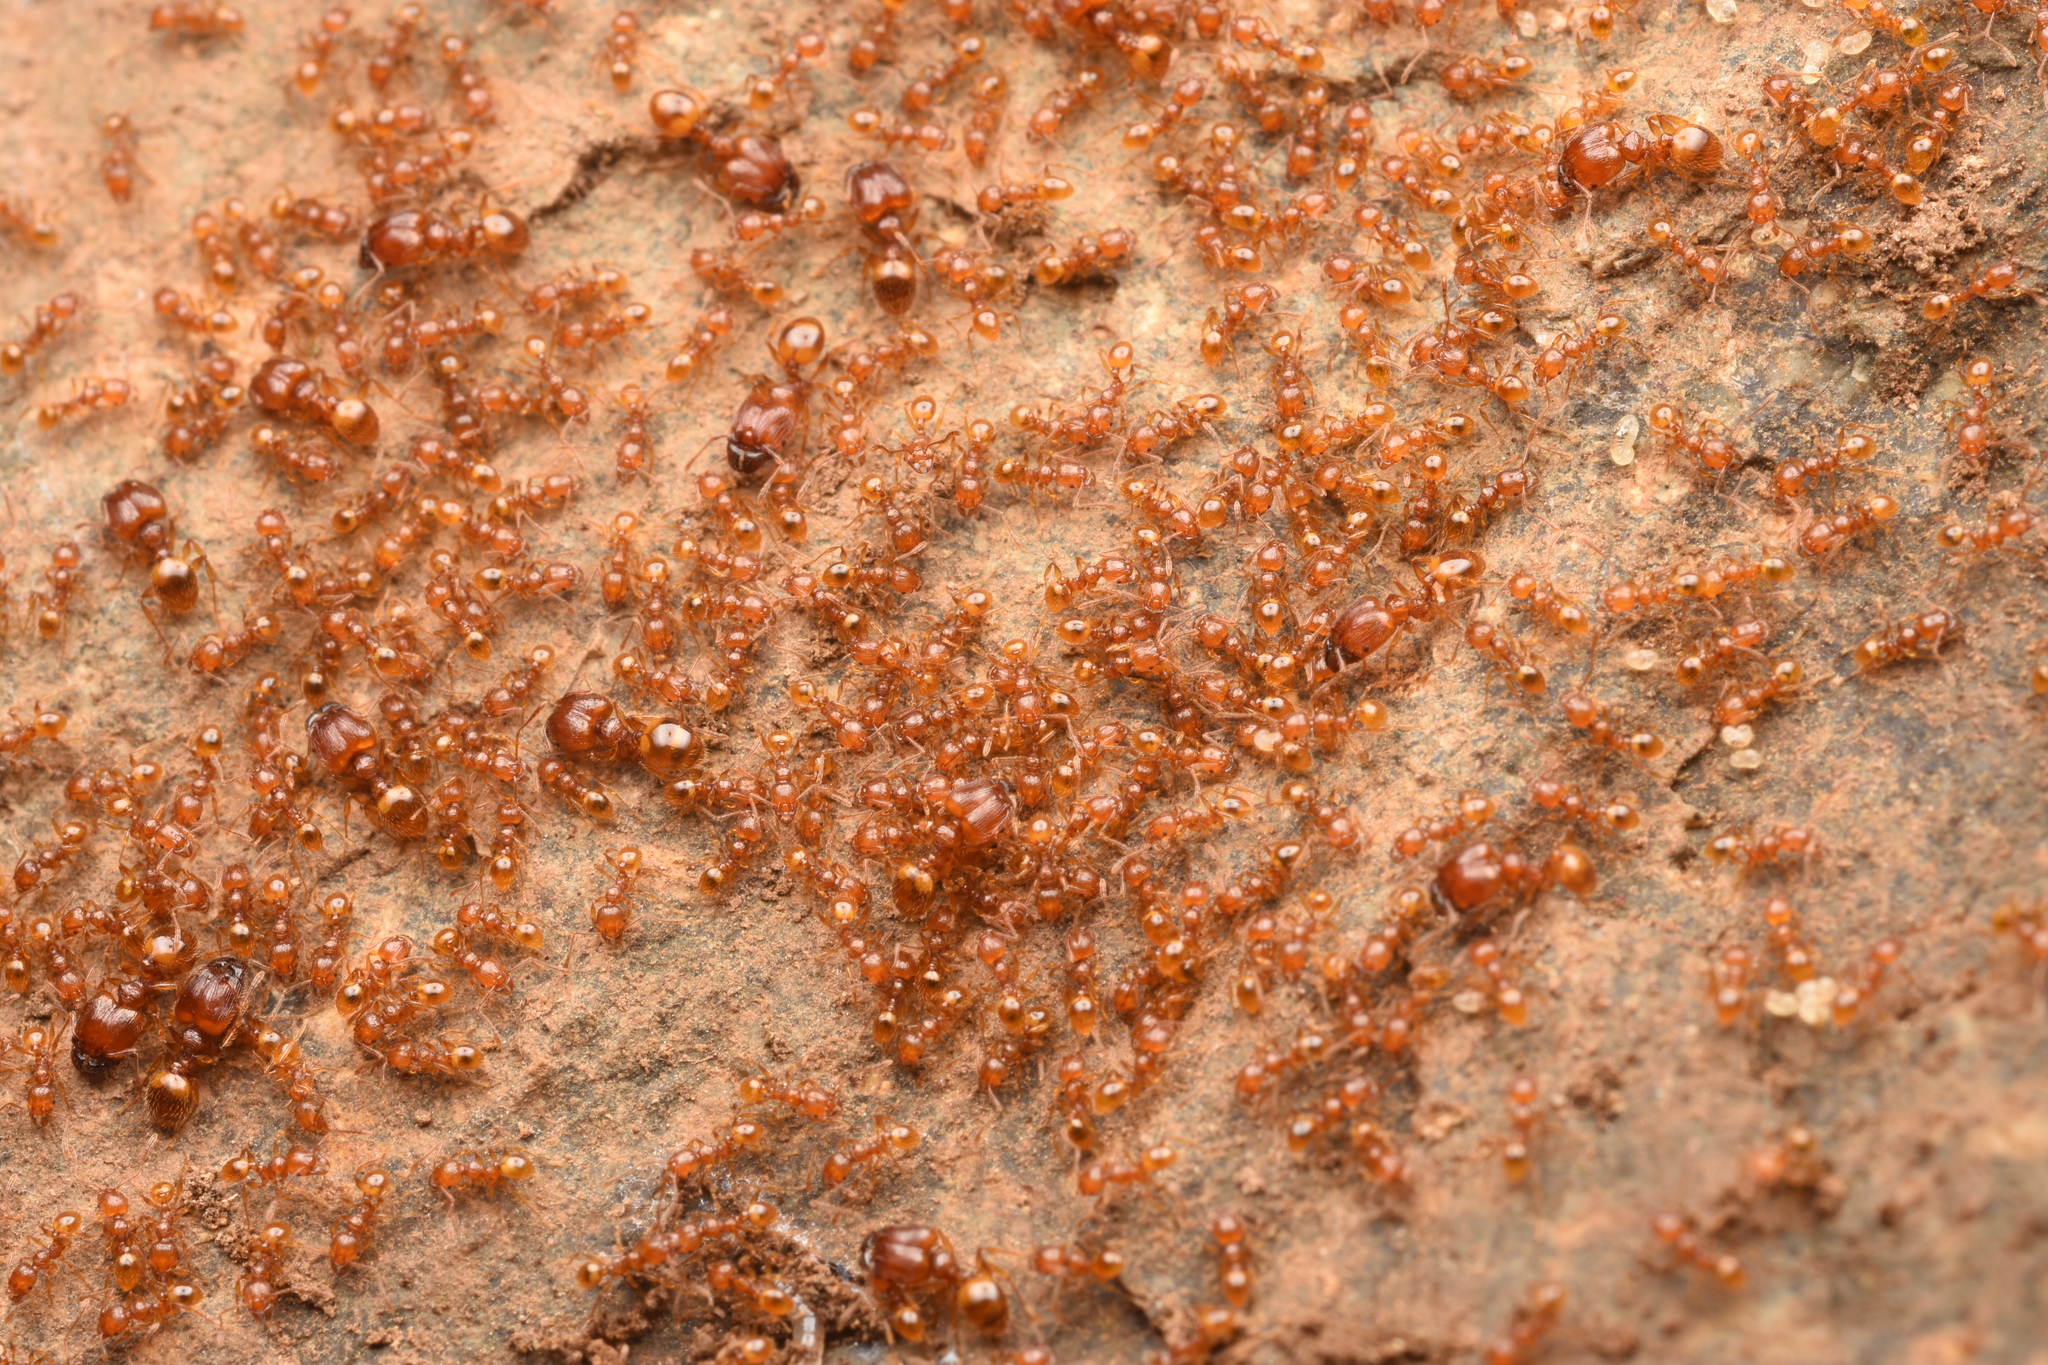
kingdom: Animalia
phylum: Arthropoda
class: Insecta
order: Hymenoptera
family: Formicidae
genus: Pheidole
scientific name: Pheidole fervida
